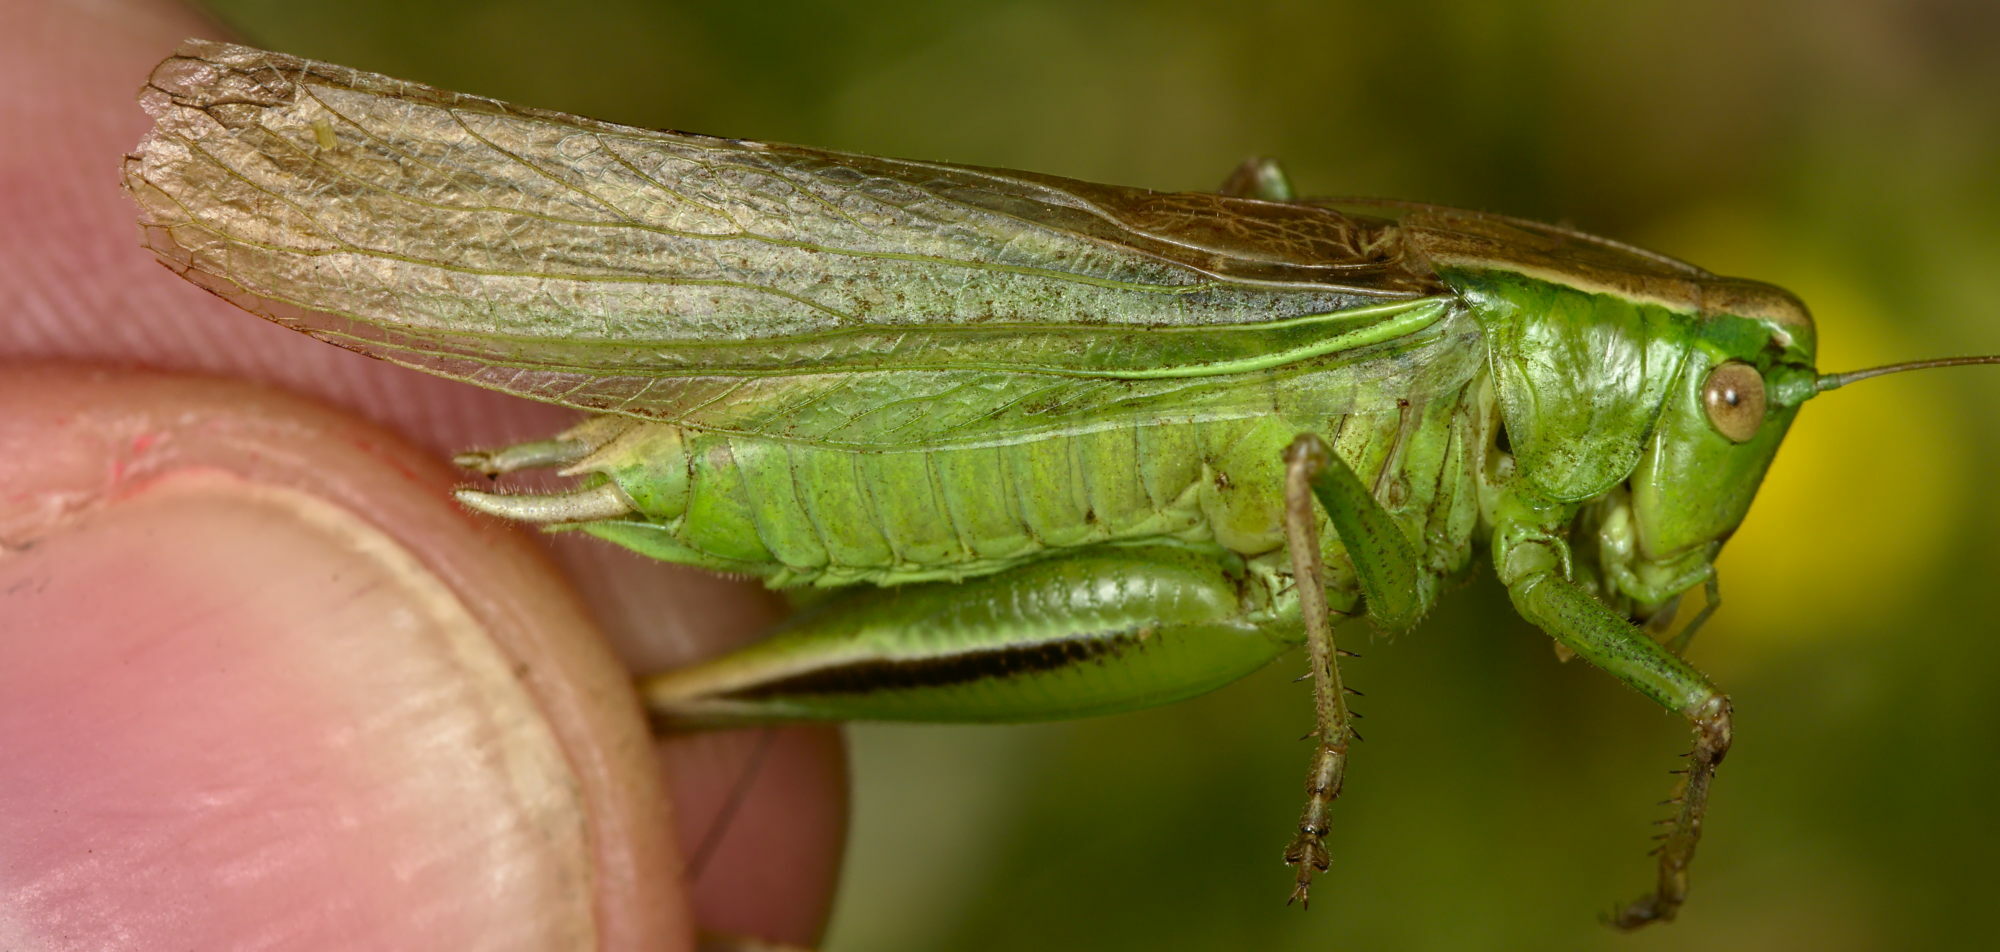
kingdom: Animalia
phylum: Arthropoda
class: Insecta
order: Orthoptera
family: Tettigoniidae
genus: Bicolorana
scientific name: Bicolorana bicolor
